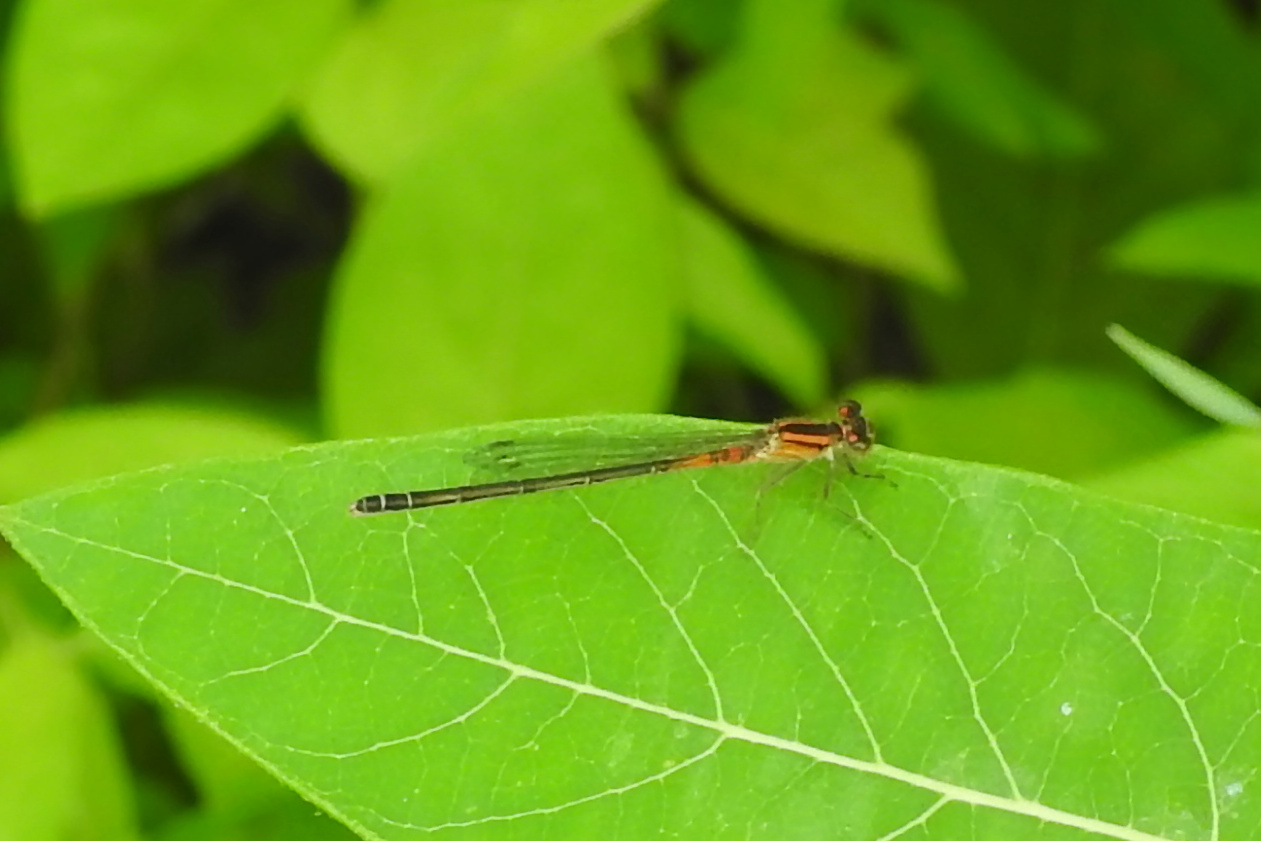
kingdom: Animalia
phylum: Arthropoda
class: Insecta
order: Odonata
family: Coenagrionidae
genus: Ischnura
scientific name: Ischnura verticalis
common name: Eastern forktail
